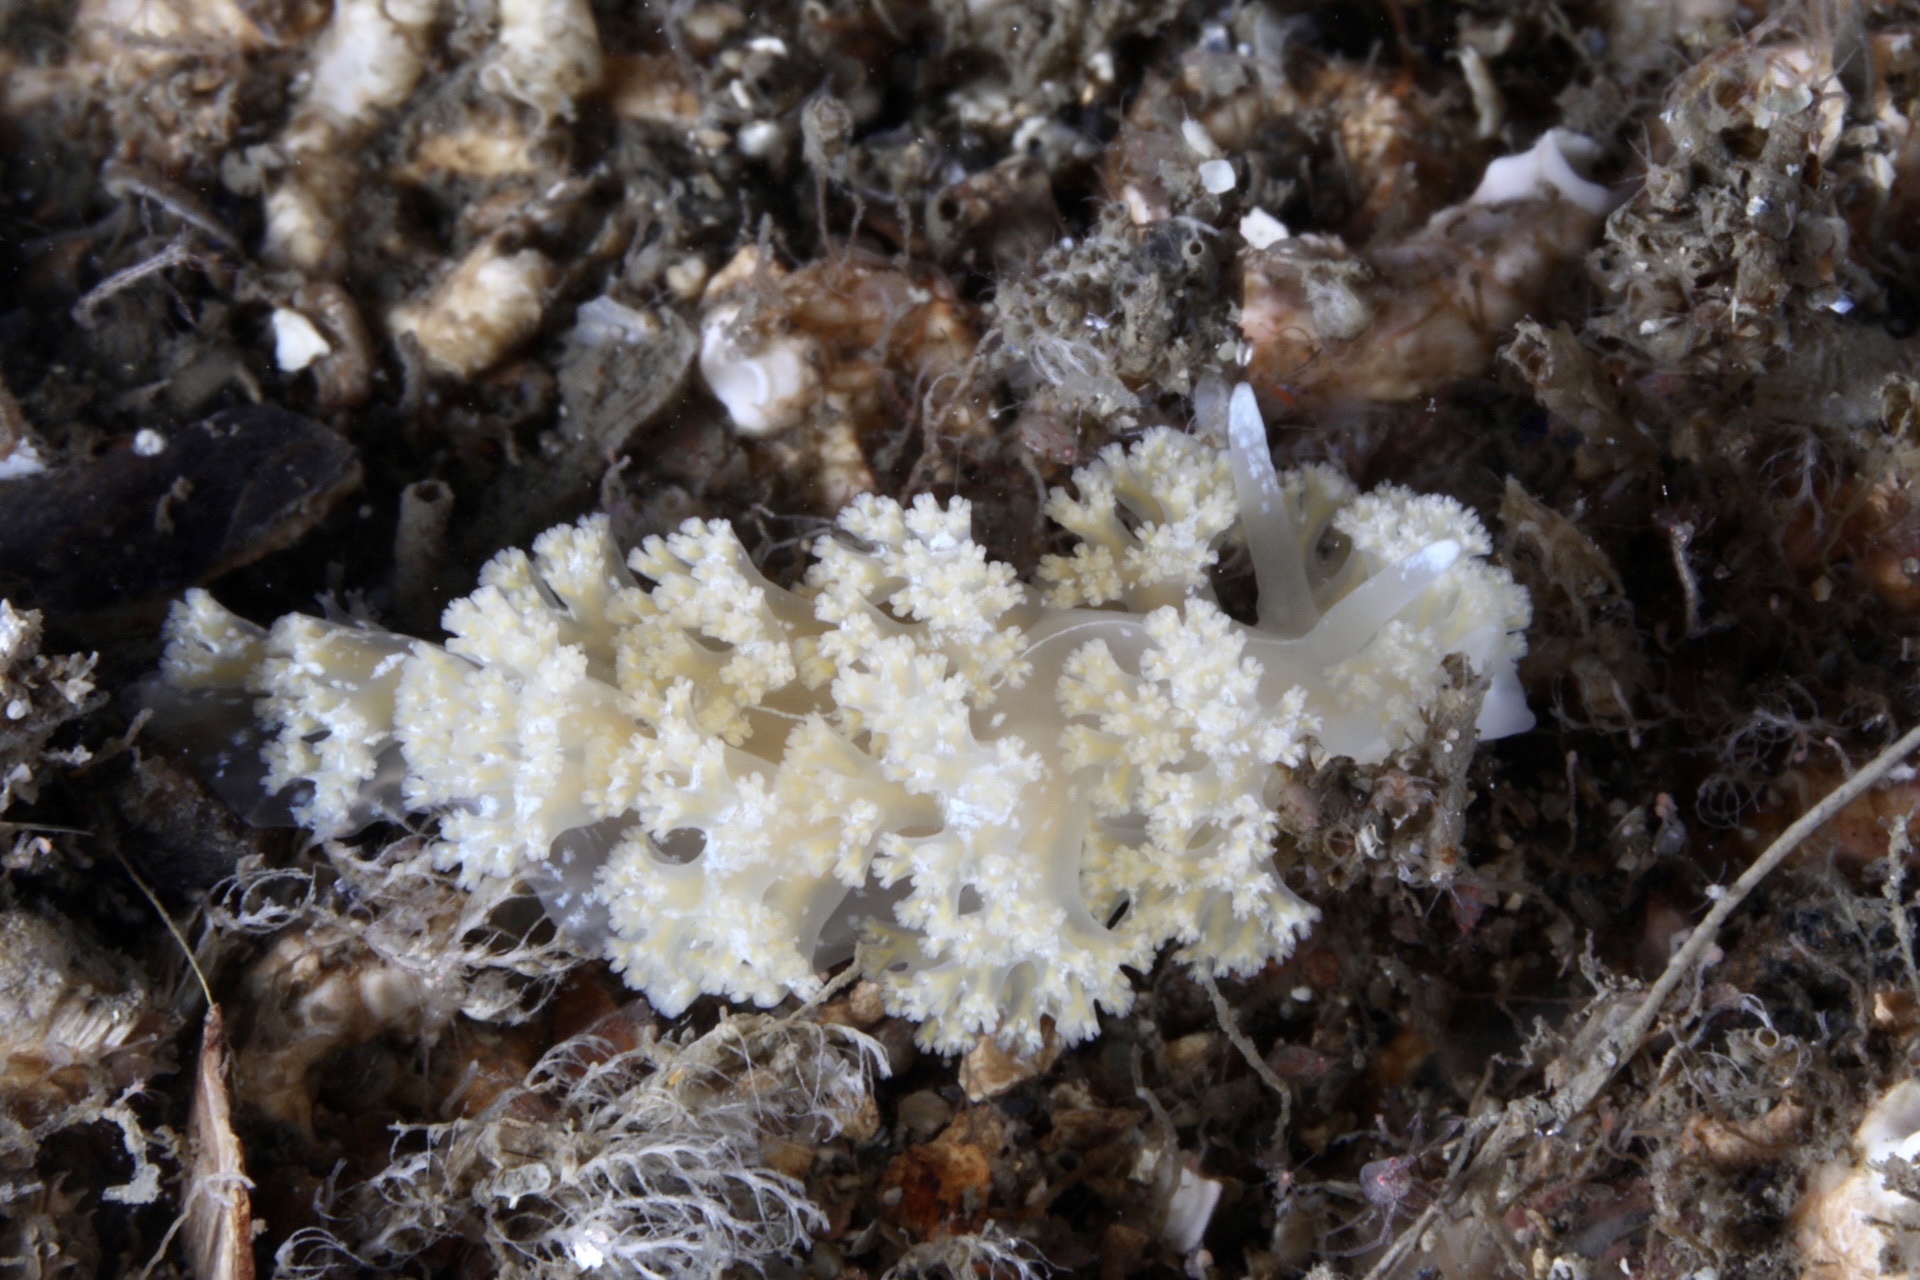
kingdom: Animalia
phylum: Mollusca
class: Gastropoda
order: Nudibranchia
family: Heroidae
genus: Hero
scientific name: Hero formosa
